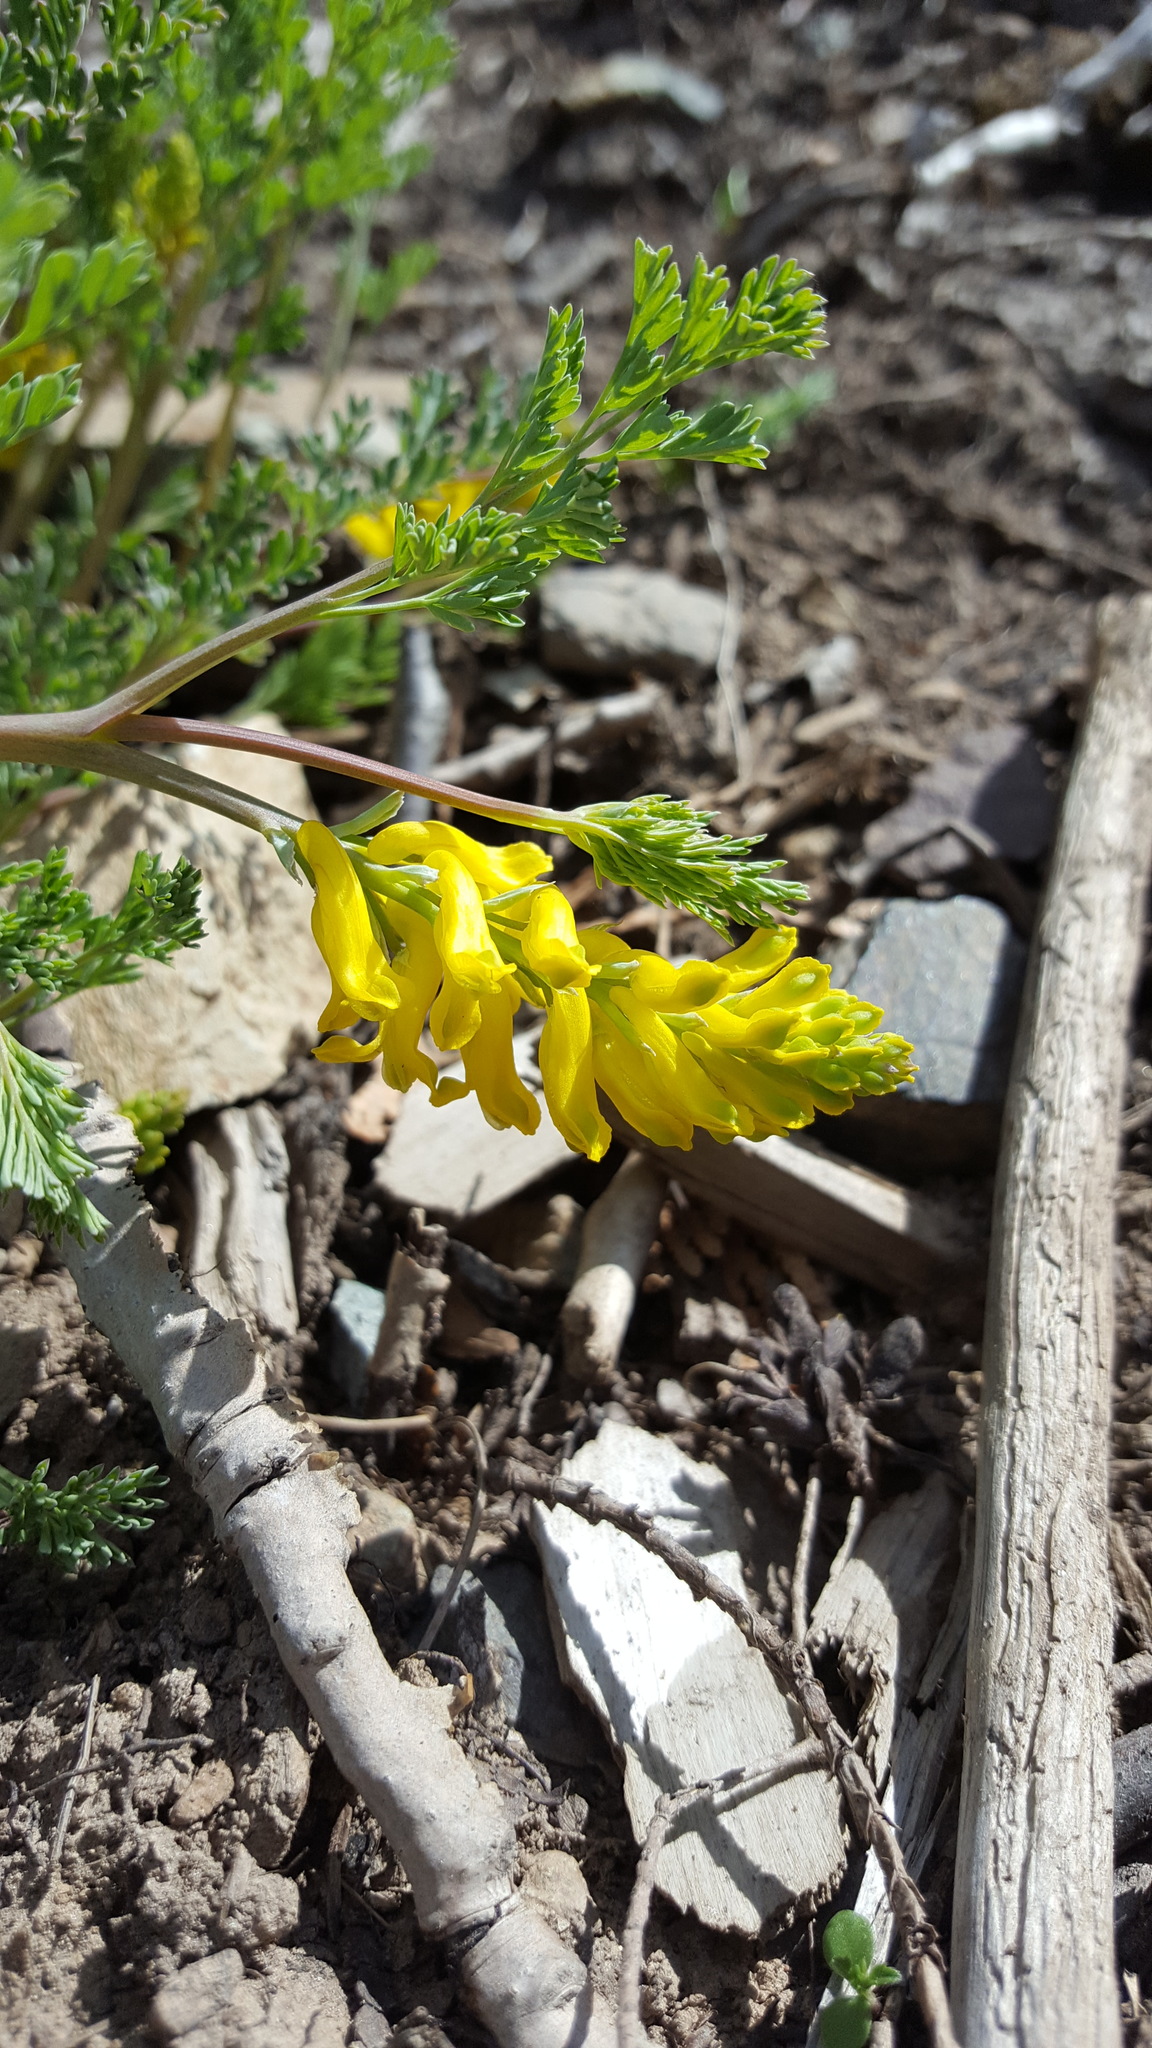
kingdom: Plantae
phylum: Tracheophyta
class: Magnoliopsida
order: Ranunculales
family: Papaveraceae
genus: Corydalis
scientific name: Corydalis aurea
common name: Golden corydalis
